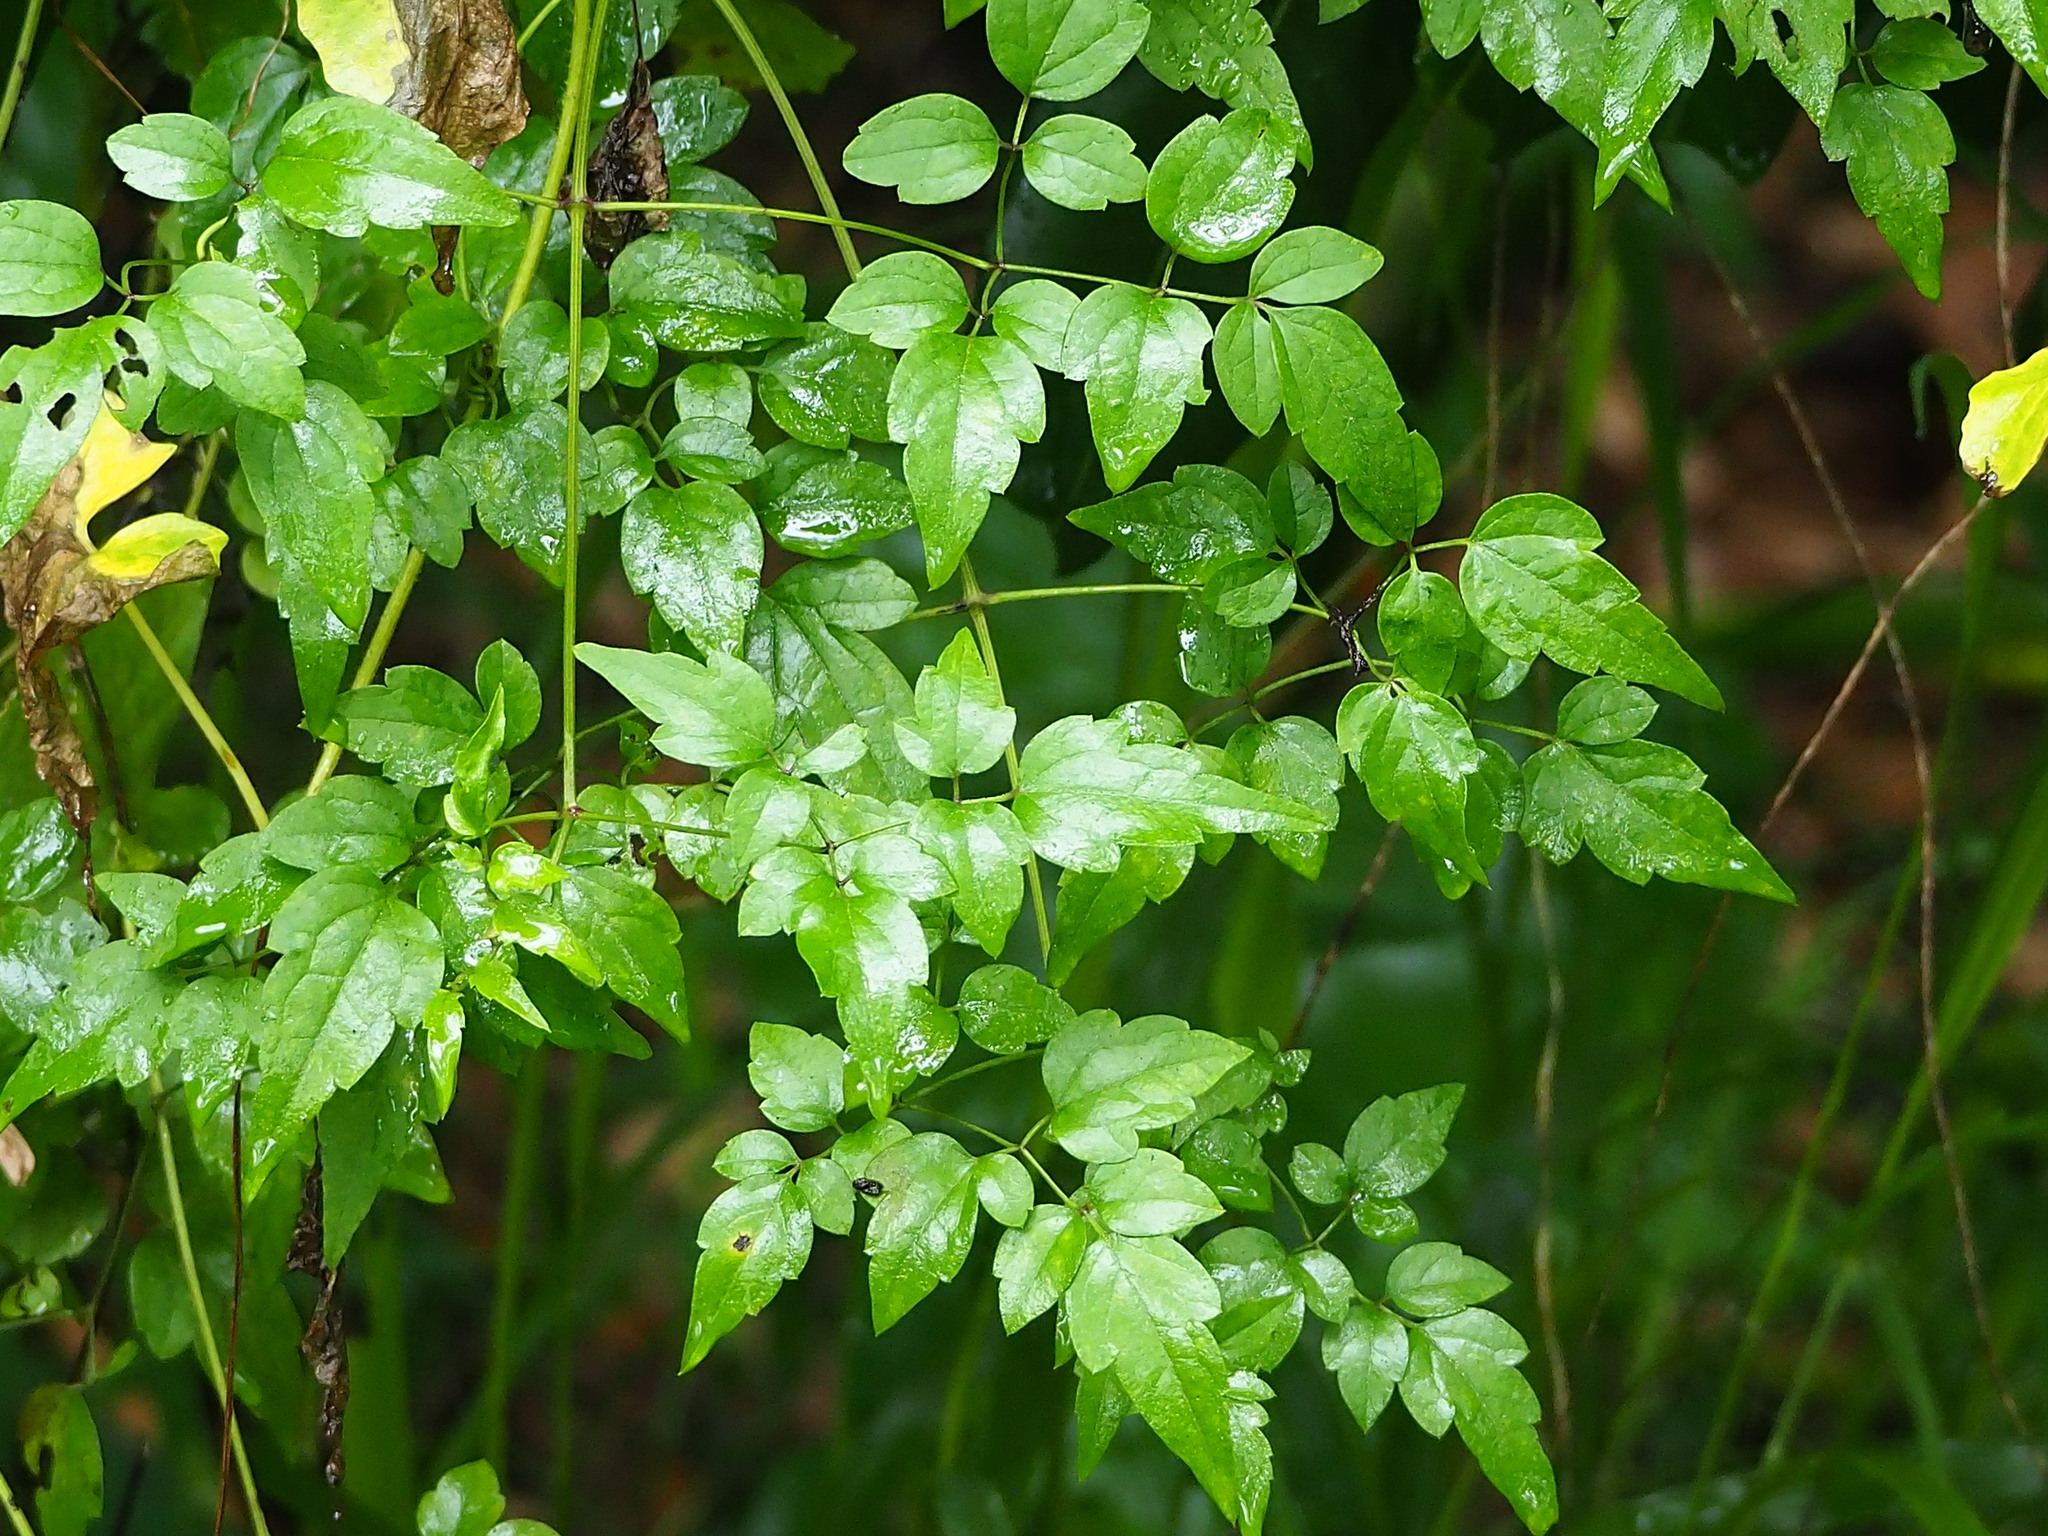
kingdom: Plantae
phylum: Tracheophyta
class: Magnoliopsida
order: Ranunculales
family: Ranunculaceae
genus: Clematis
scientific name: Clematis grata
